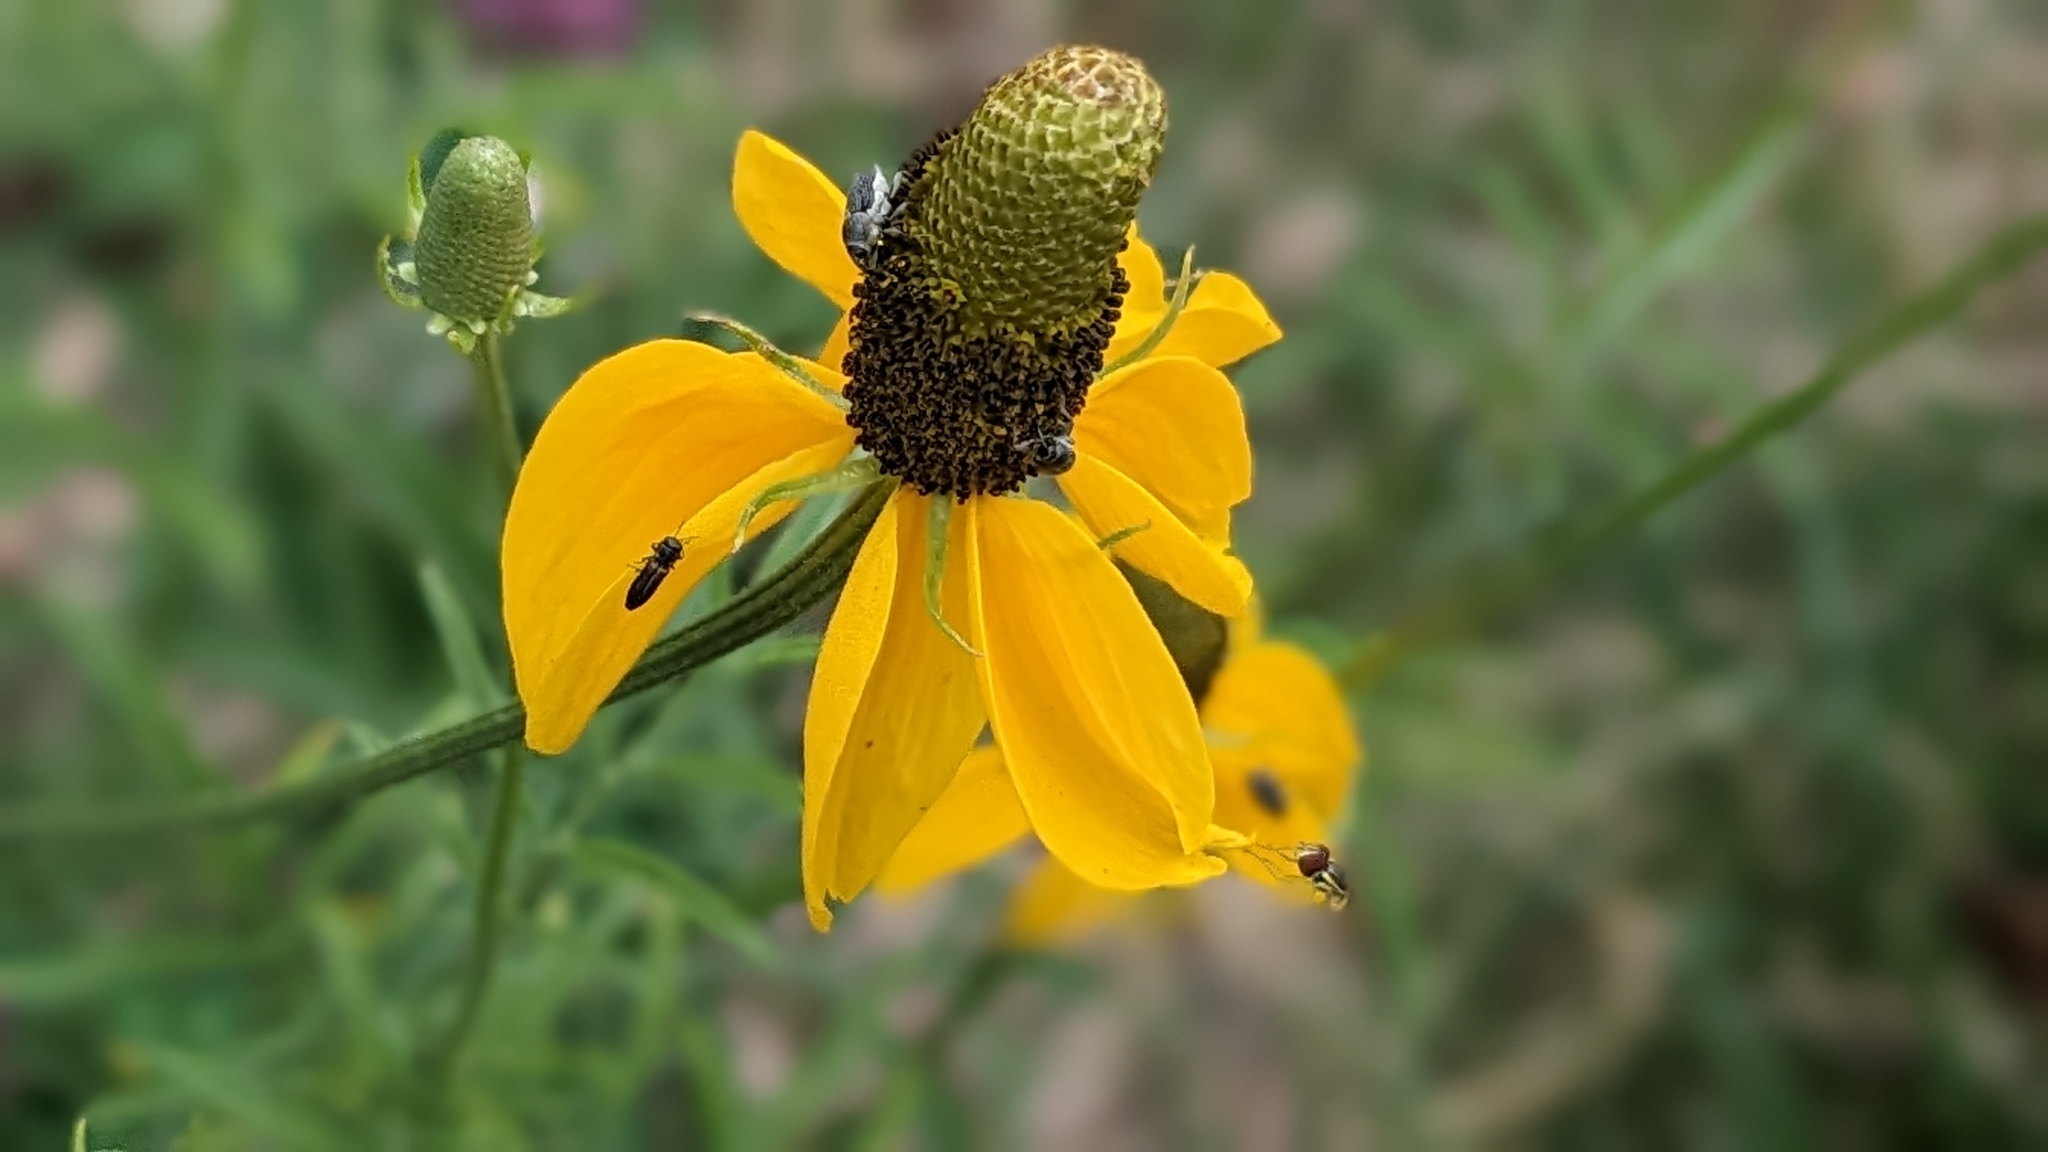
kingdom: Plantae
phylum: Tracheophyta
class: Magnoliopsida
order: Asterales
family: Asteraceae
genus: Ratibida
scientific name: Ratibida columnifera
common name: Prairie coneflower
